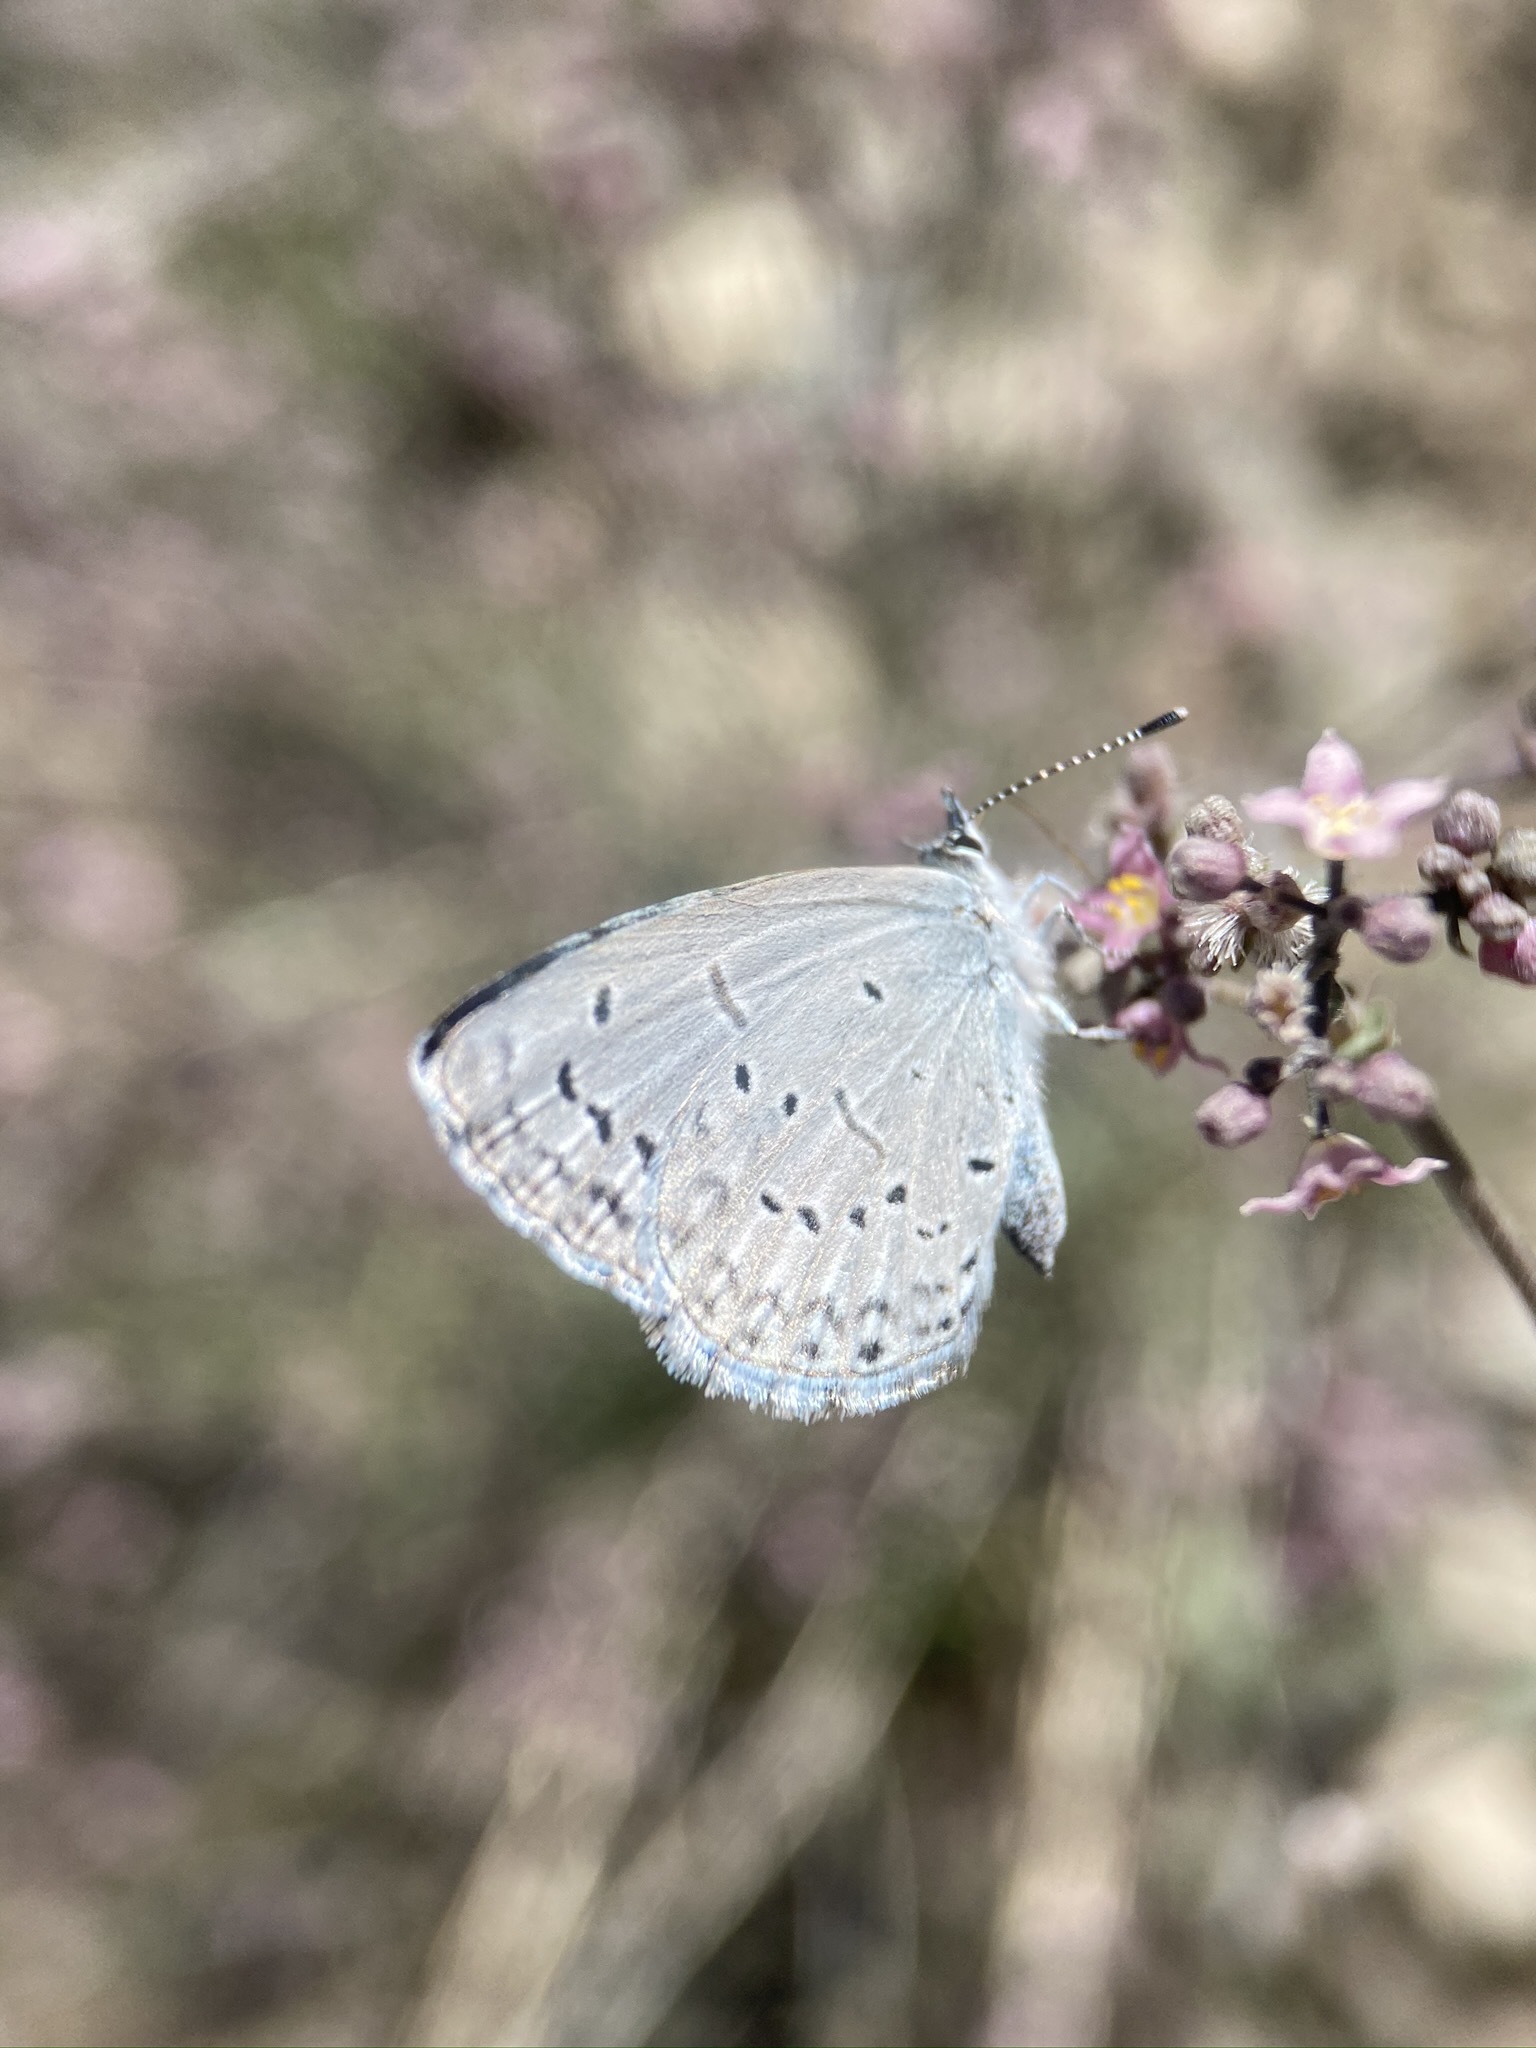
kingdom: Animalia
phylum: Arthropoda
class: Insecta
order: Lepidoptera
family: Lycaenidae
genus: Celastrina
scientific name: Celastrina ladon
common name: Spring azure
